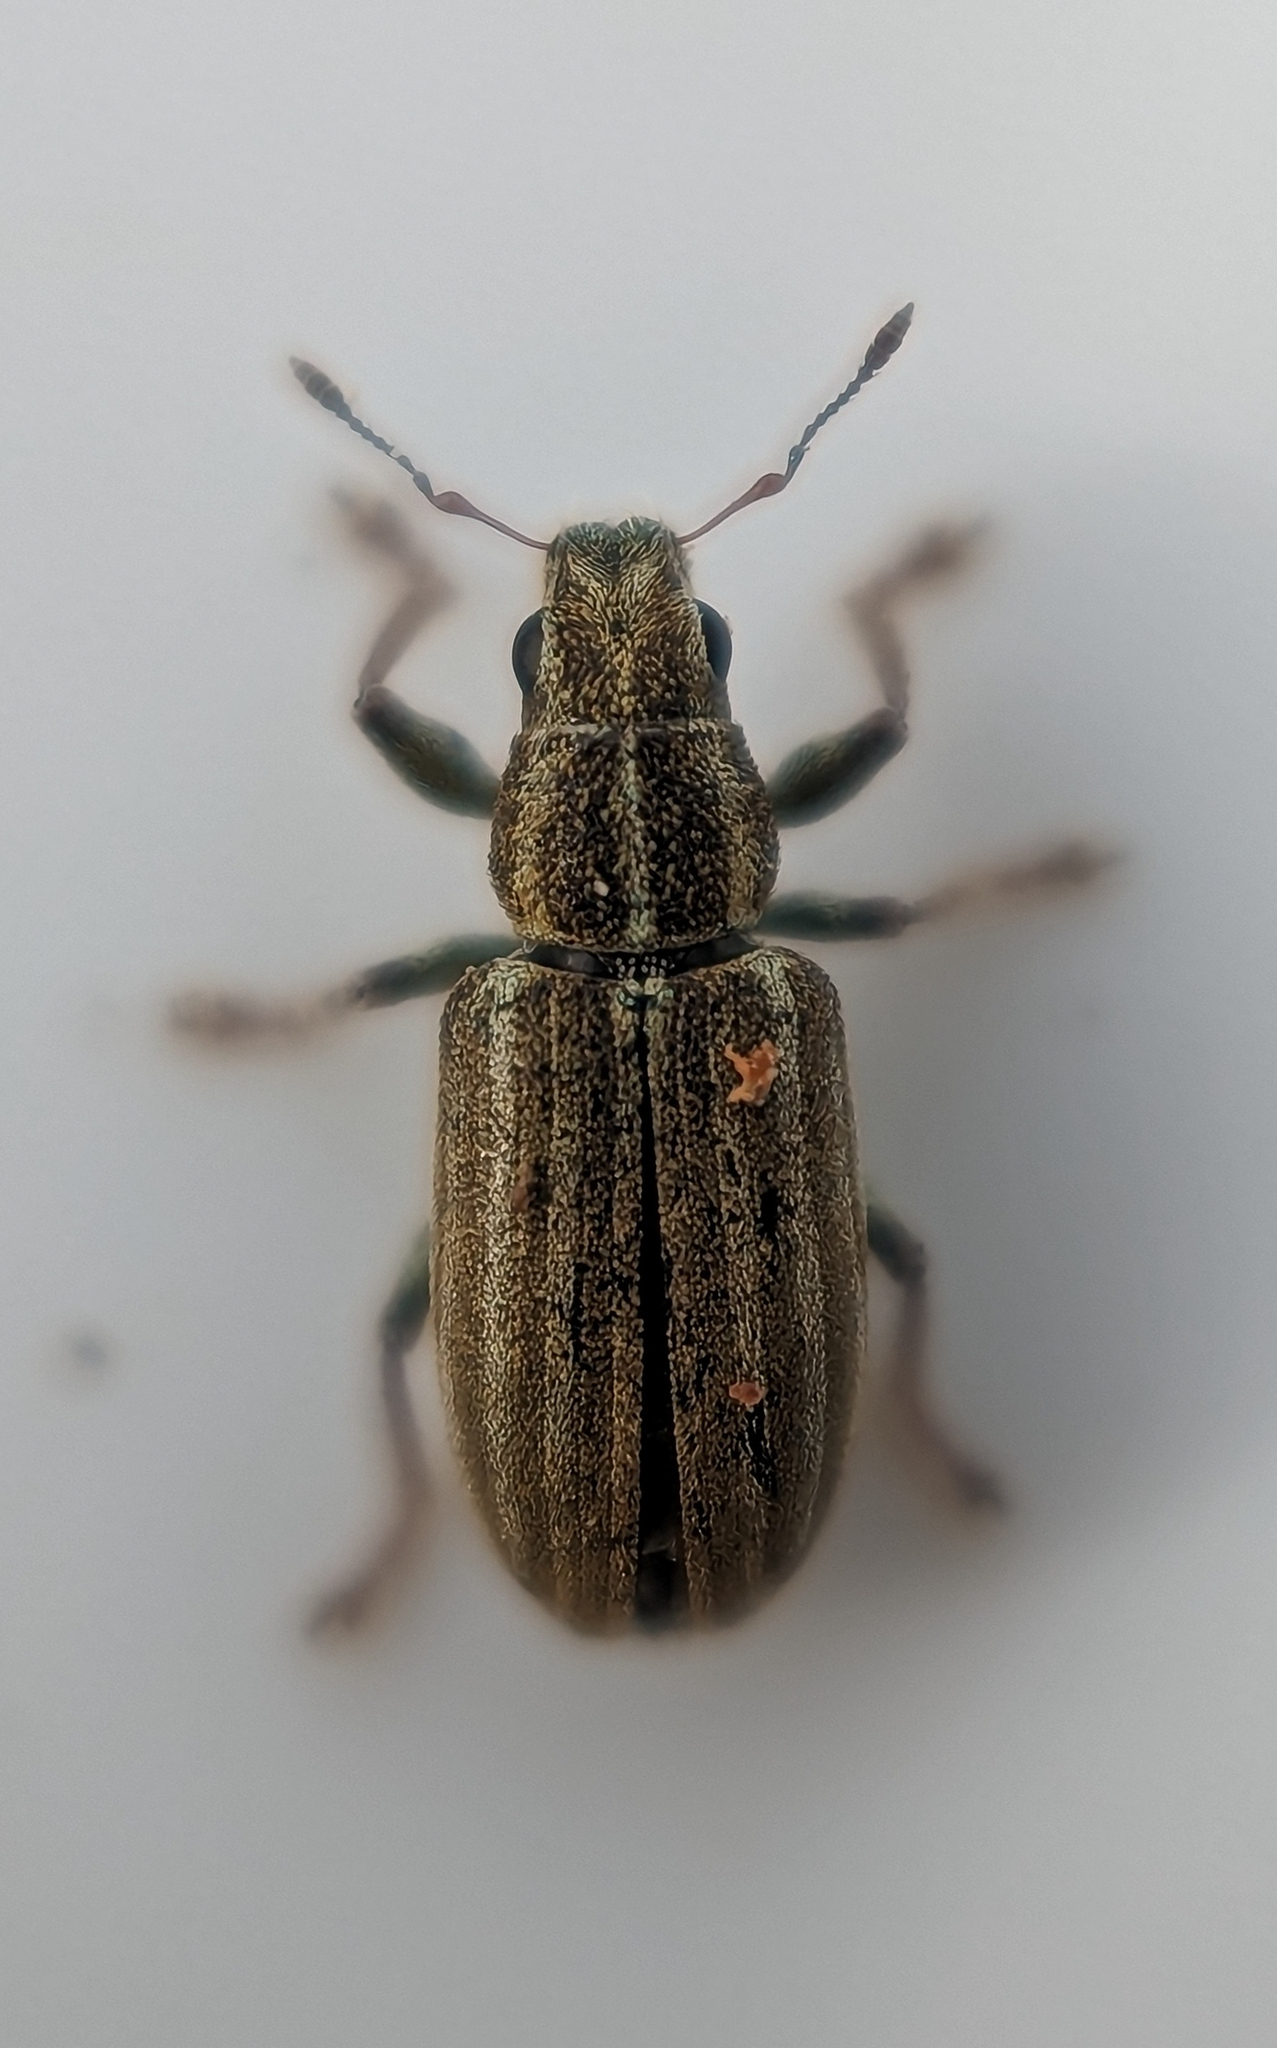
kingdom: Animalia
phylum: Arthropoda
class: Insecta
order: Coleoptera
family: Curculionidae
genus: Sitona
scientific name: Sitona lineatus
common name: Weevil
